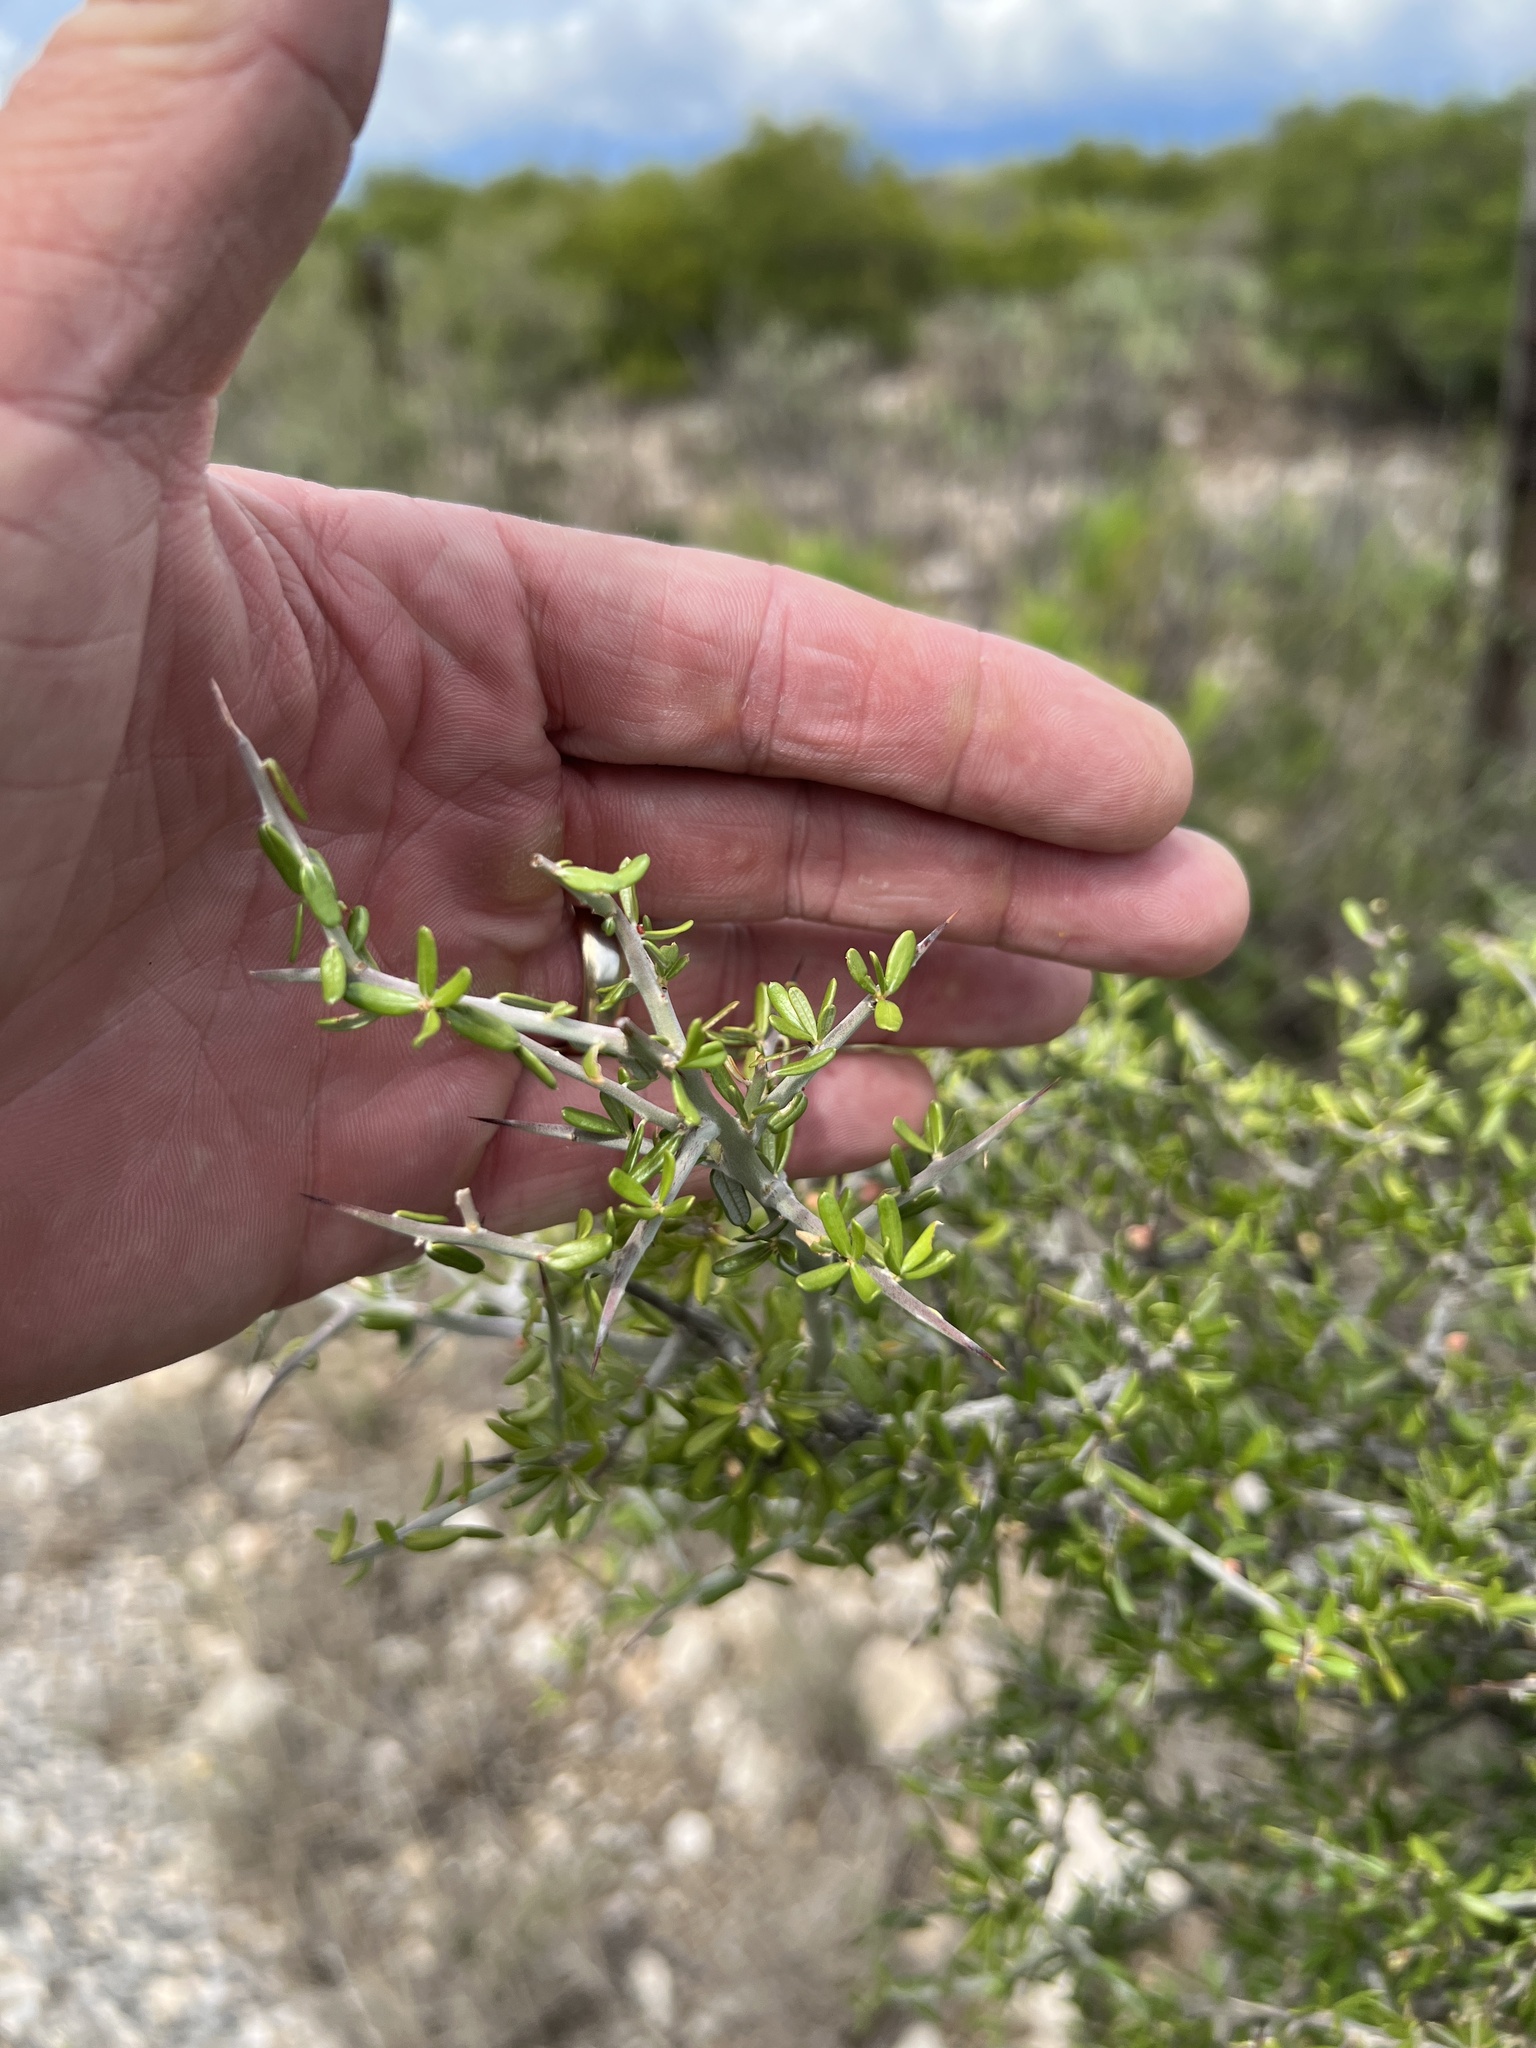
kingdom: Plantae
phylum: Tracheophyta
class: Magnoliopsida
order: Sapindales
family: Simaroubaceae
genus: Castela
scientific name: Castela erecta
